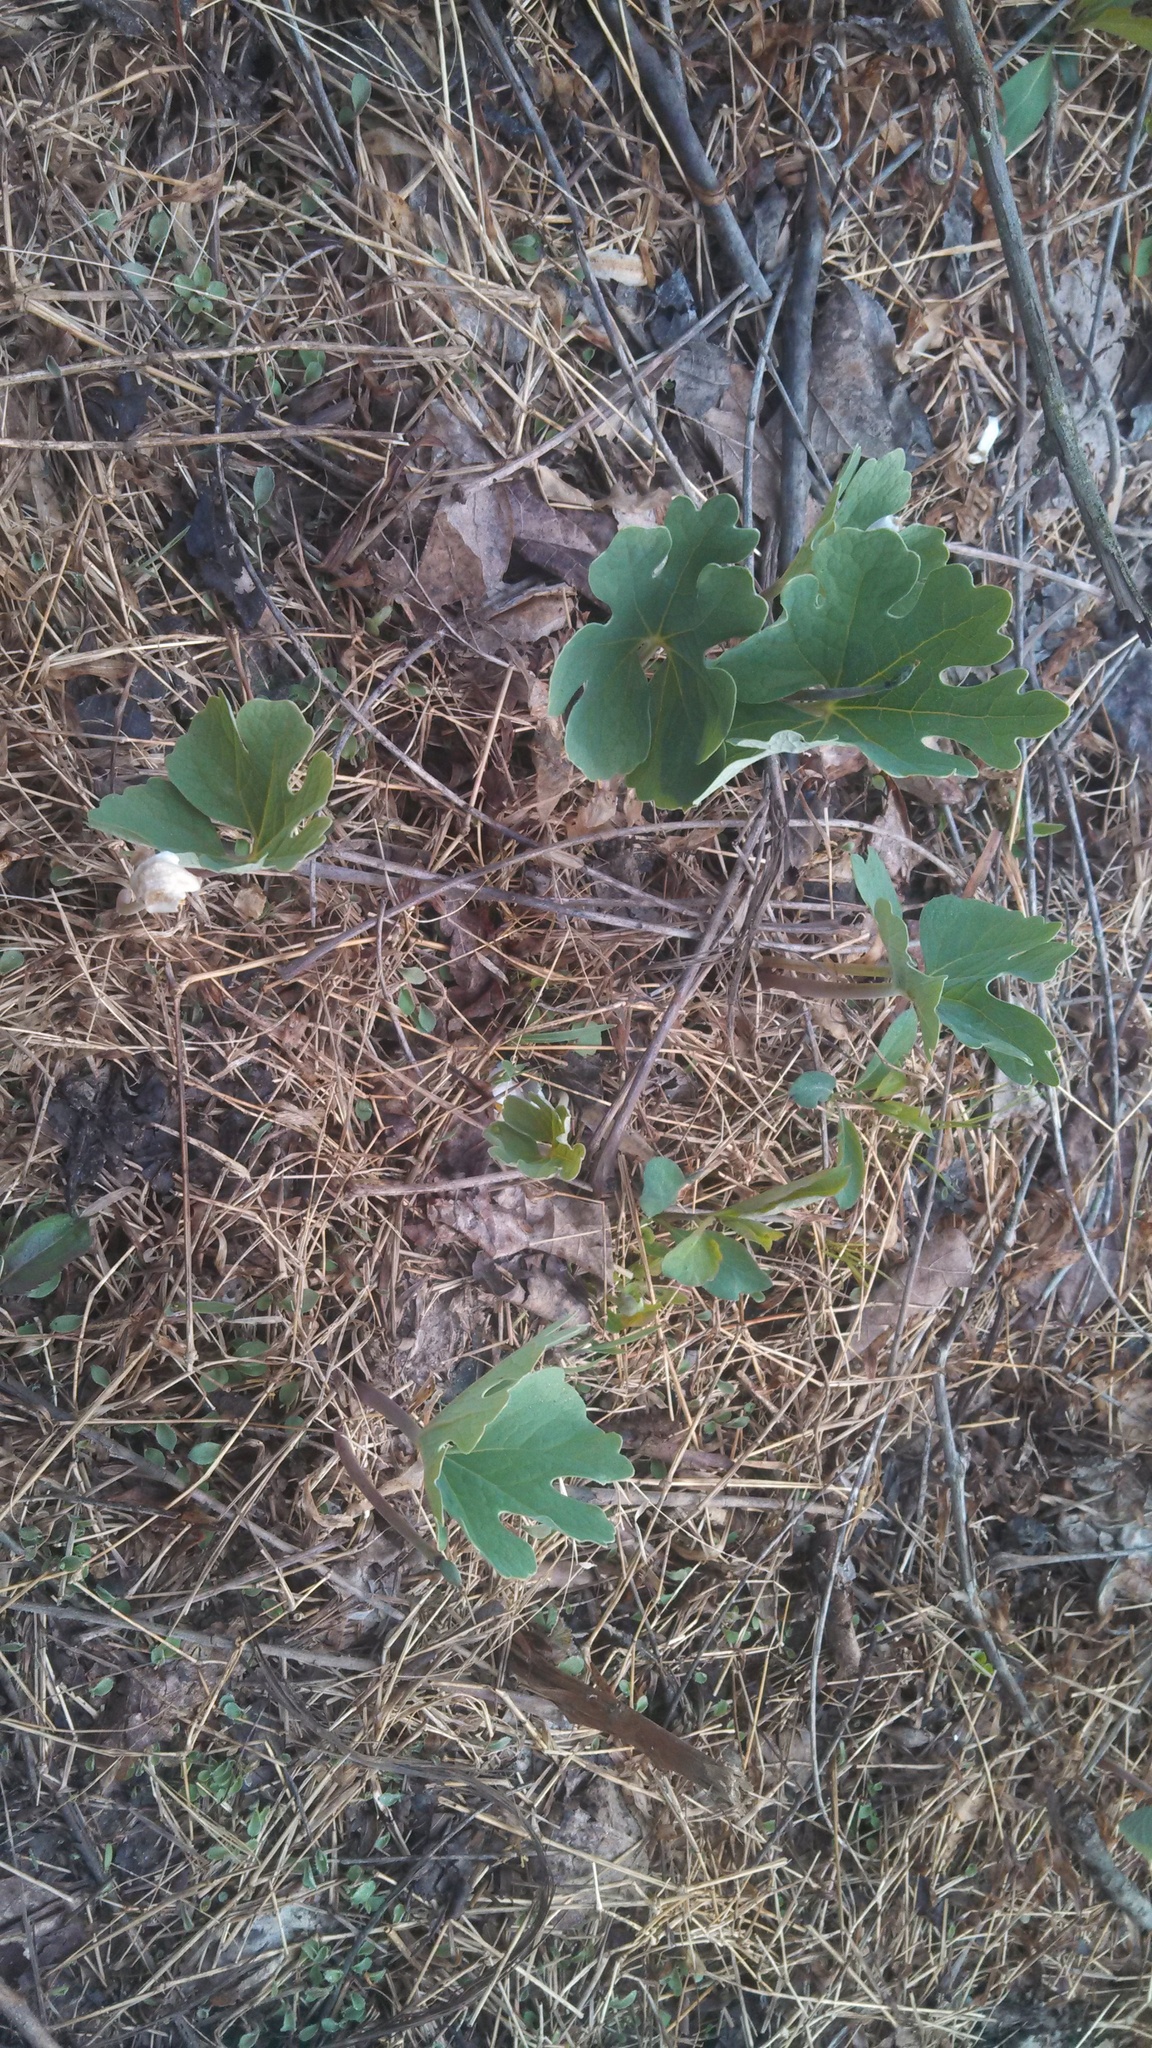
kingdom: Plantae
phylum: Tracheophyta
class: Magnoliopsida
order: Ranunculales
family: Papaveraceae
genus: Sanguinaria
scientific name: Sanguinaria canadensis
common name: Bloodroot
